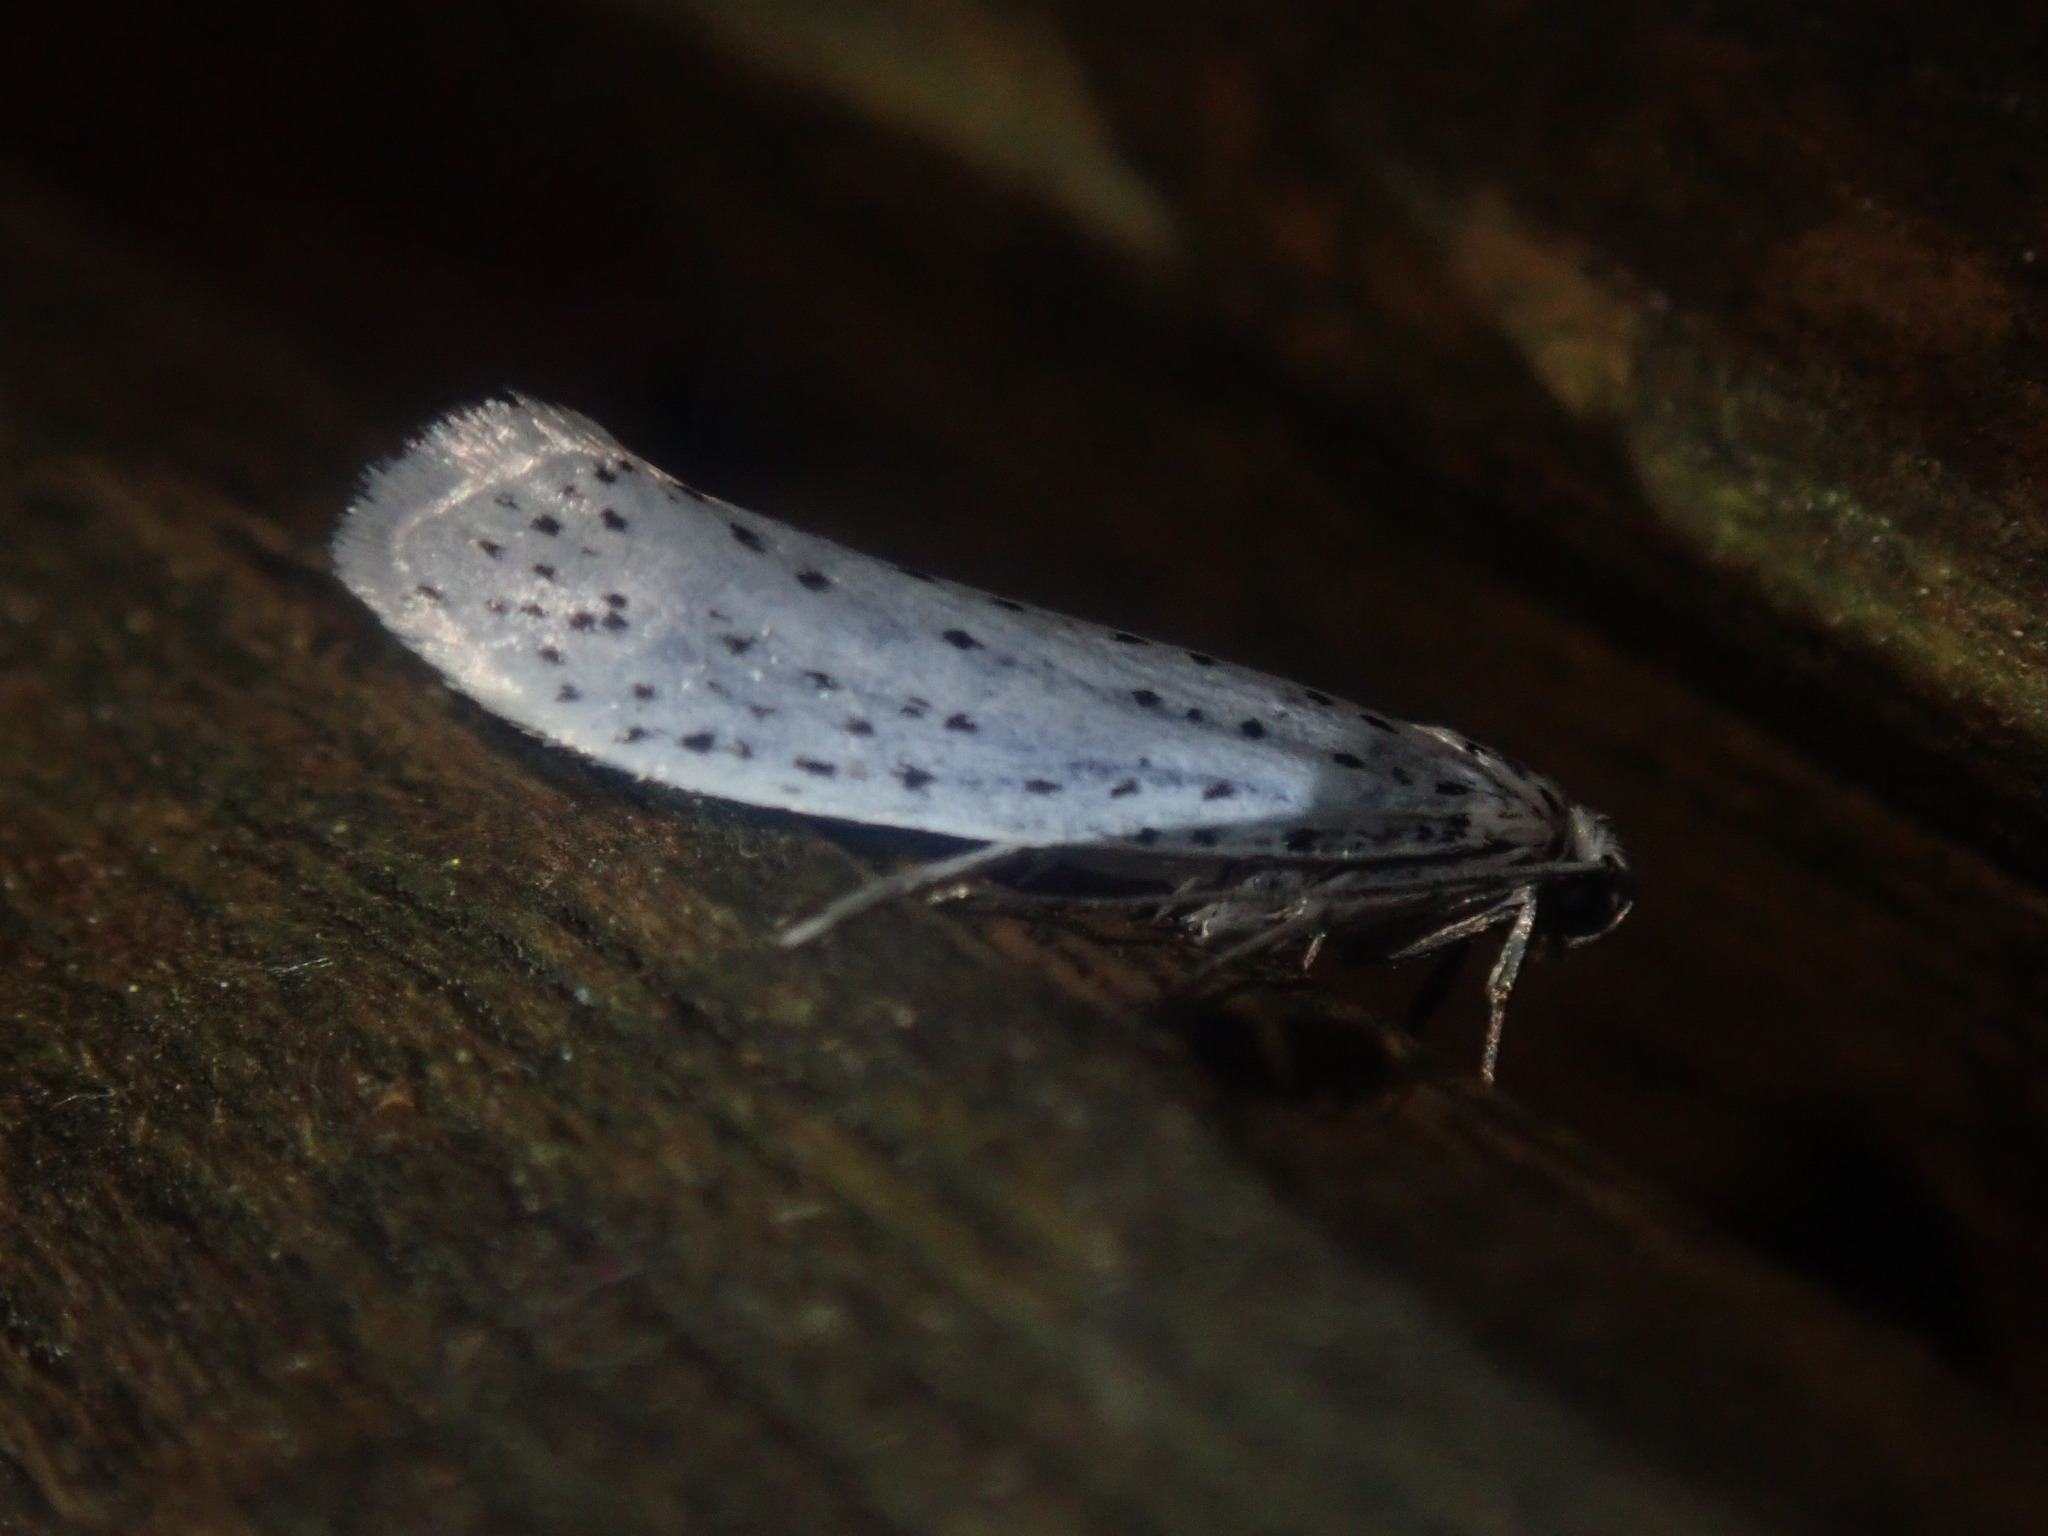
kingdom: Animalia
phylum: Arthropoda
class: Insecta
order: Lepidoptera
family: Yponomeutidae
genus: Yponomeuta
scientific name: Yponomeuta evonymella
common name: Bird-cherry ermine
